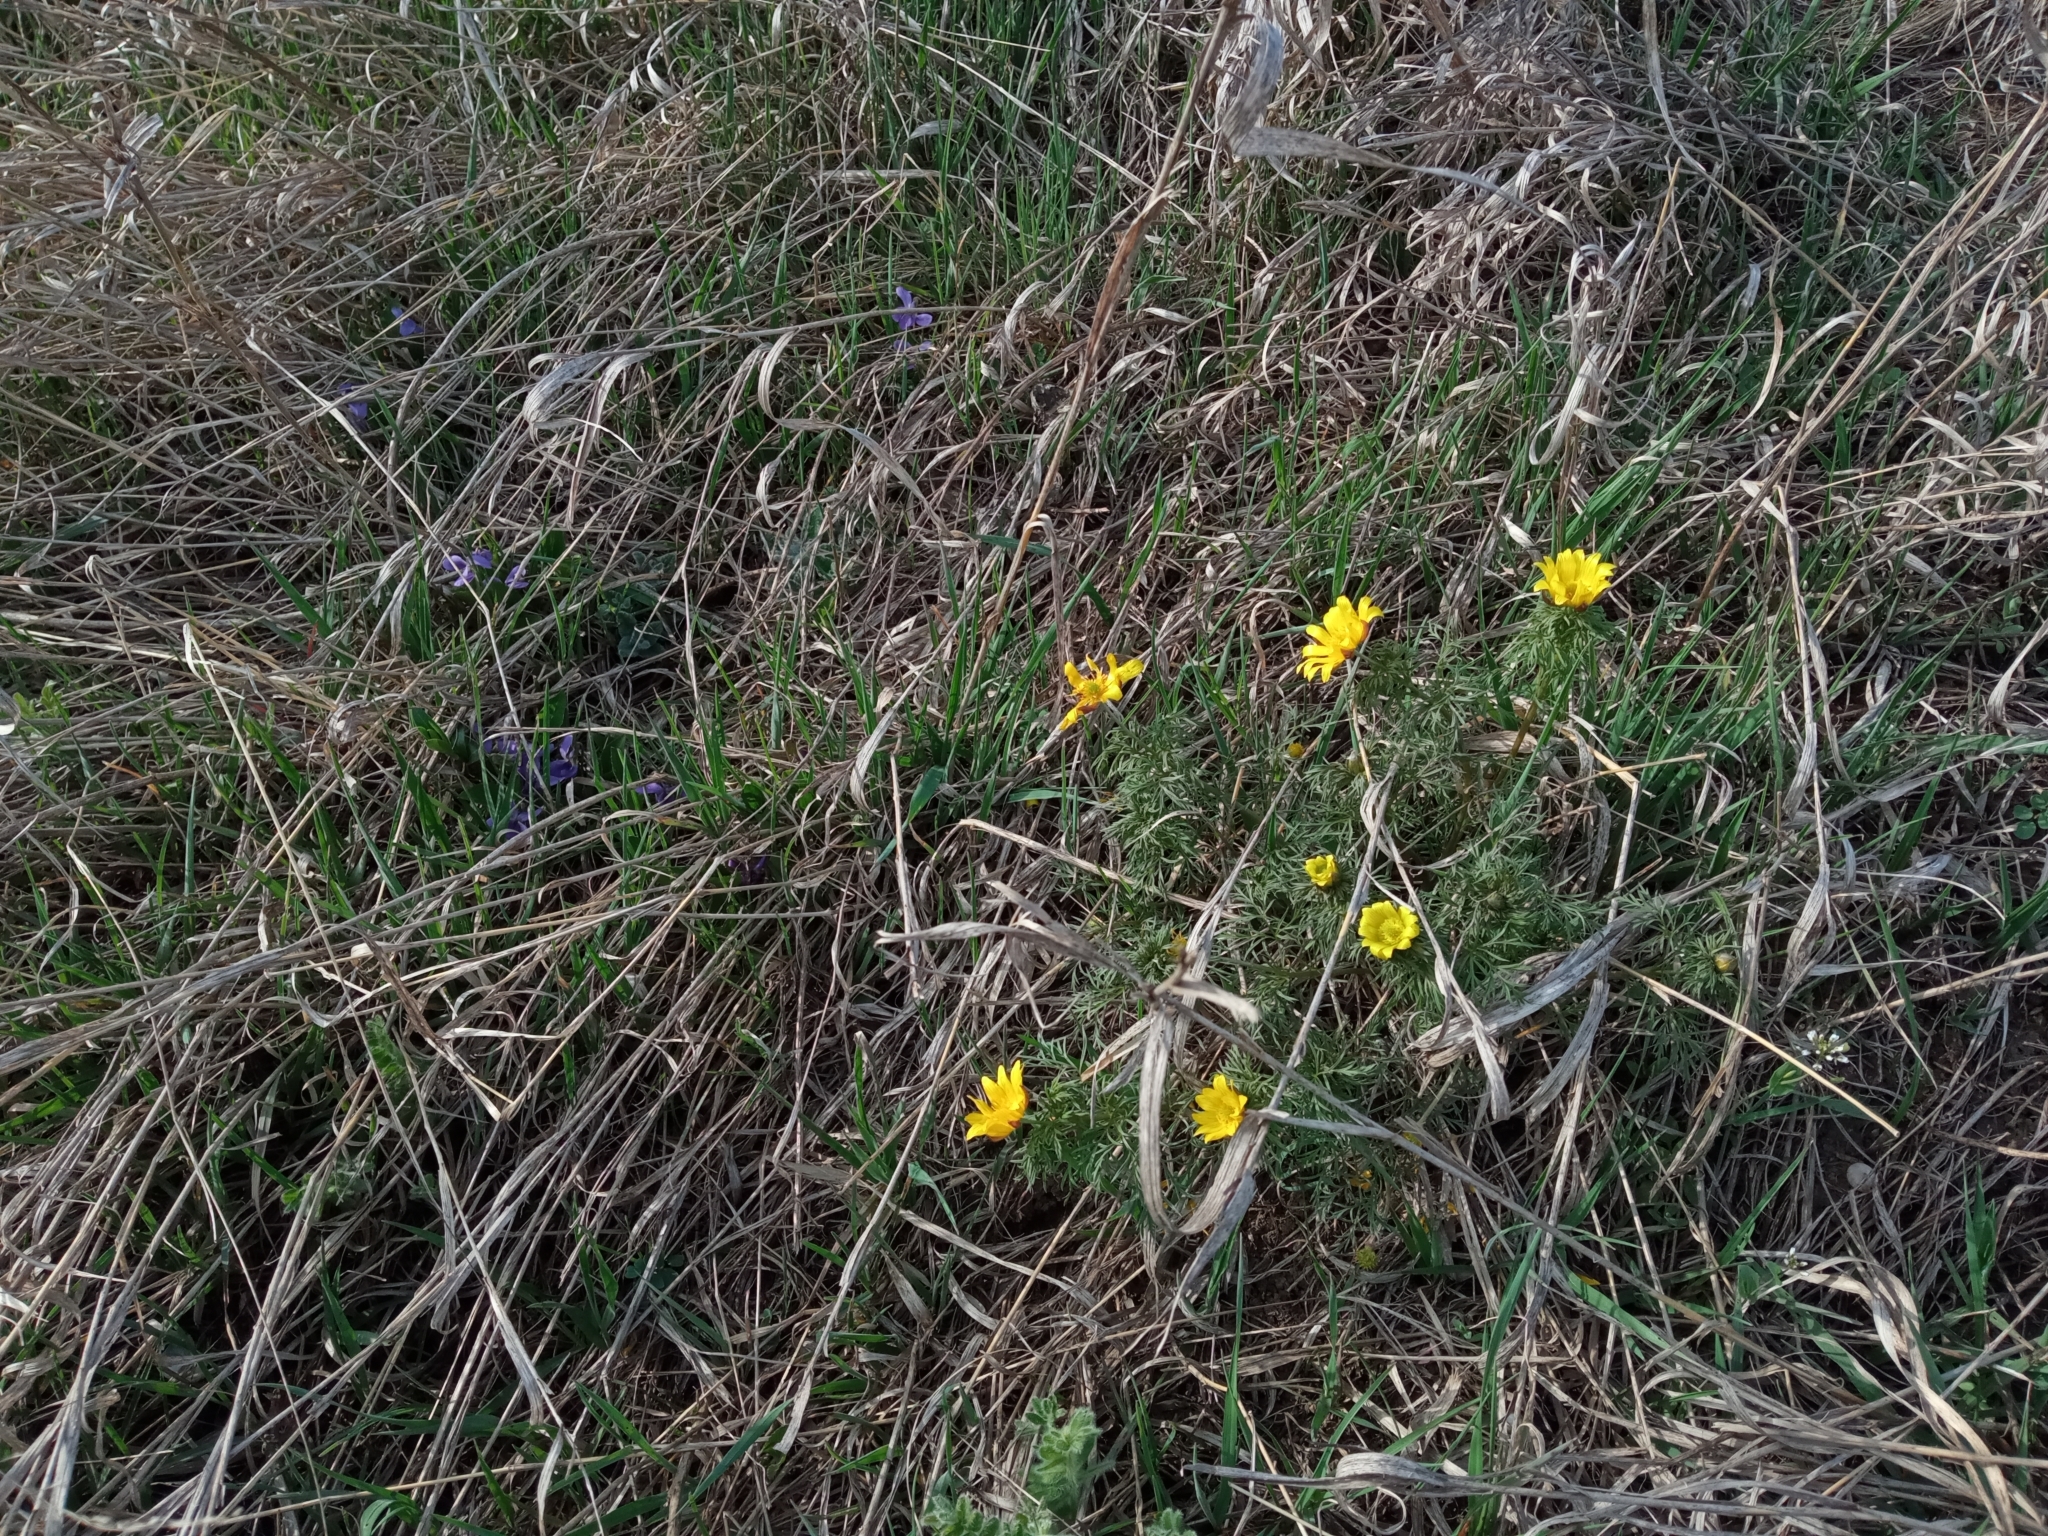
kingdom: Plantae
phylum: Tracheophyta
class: Magnoliopsida
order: Ranunculales
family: Ranunculaceae
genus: Adonis
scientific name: Adonis volgensis
